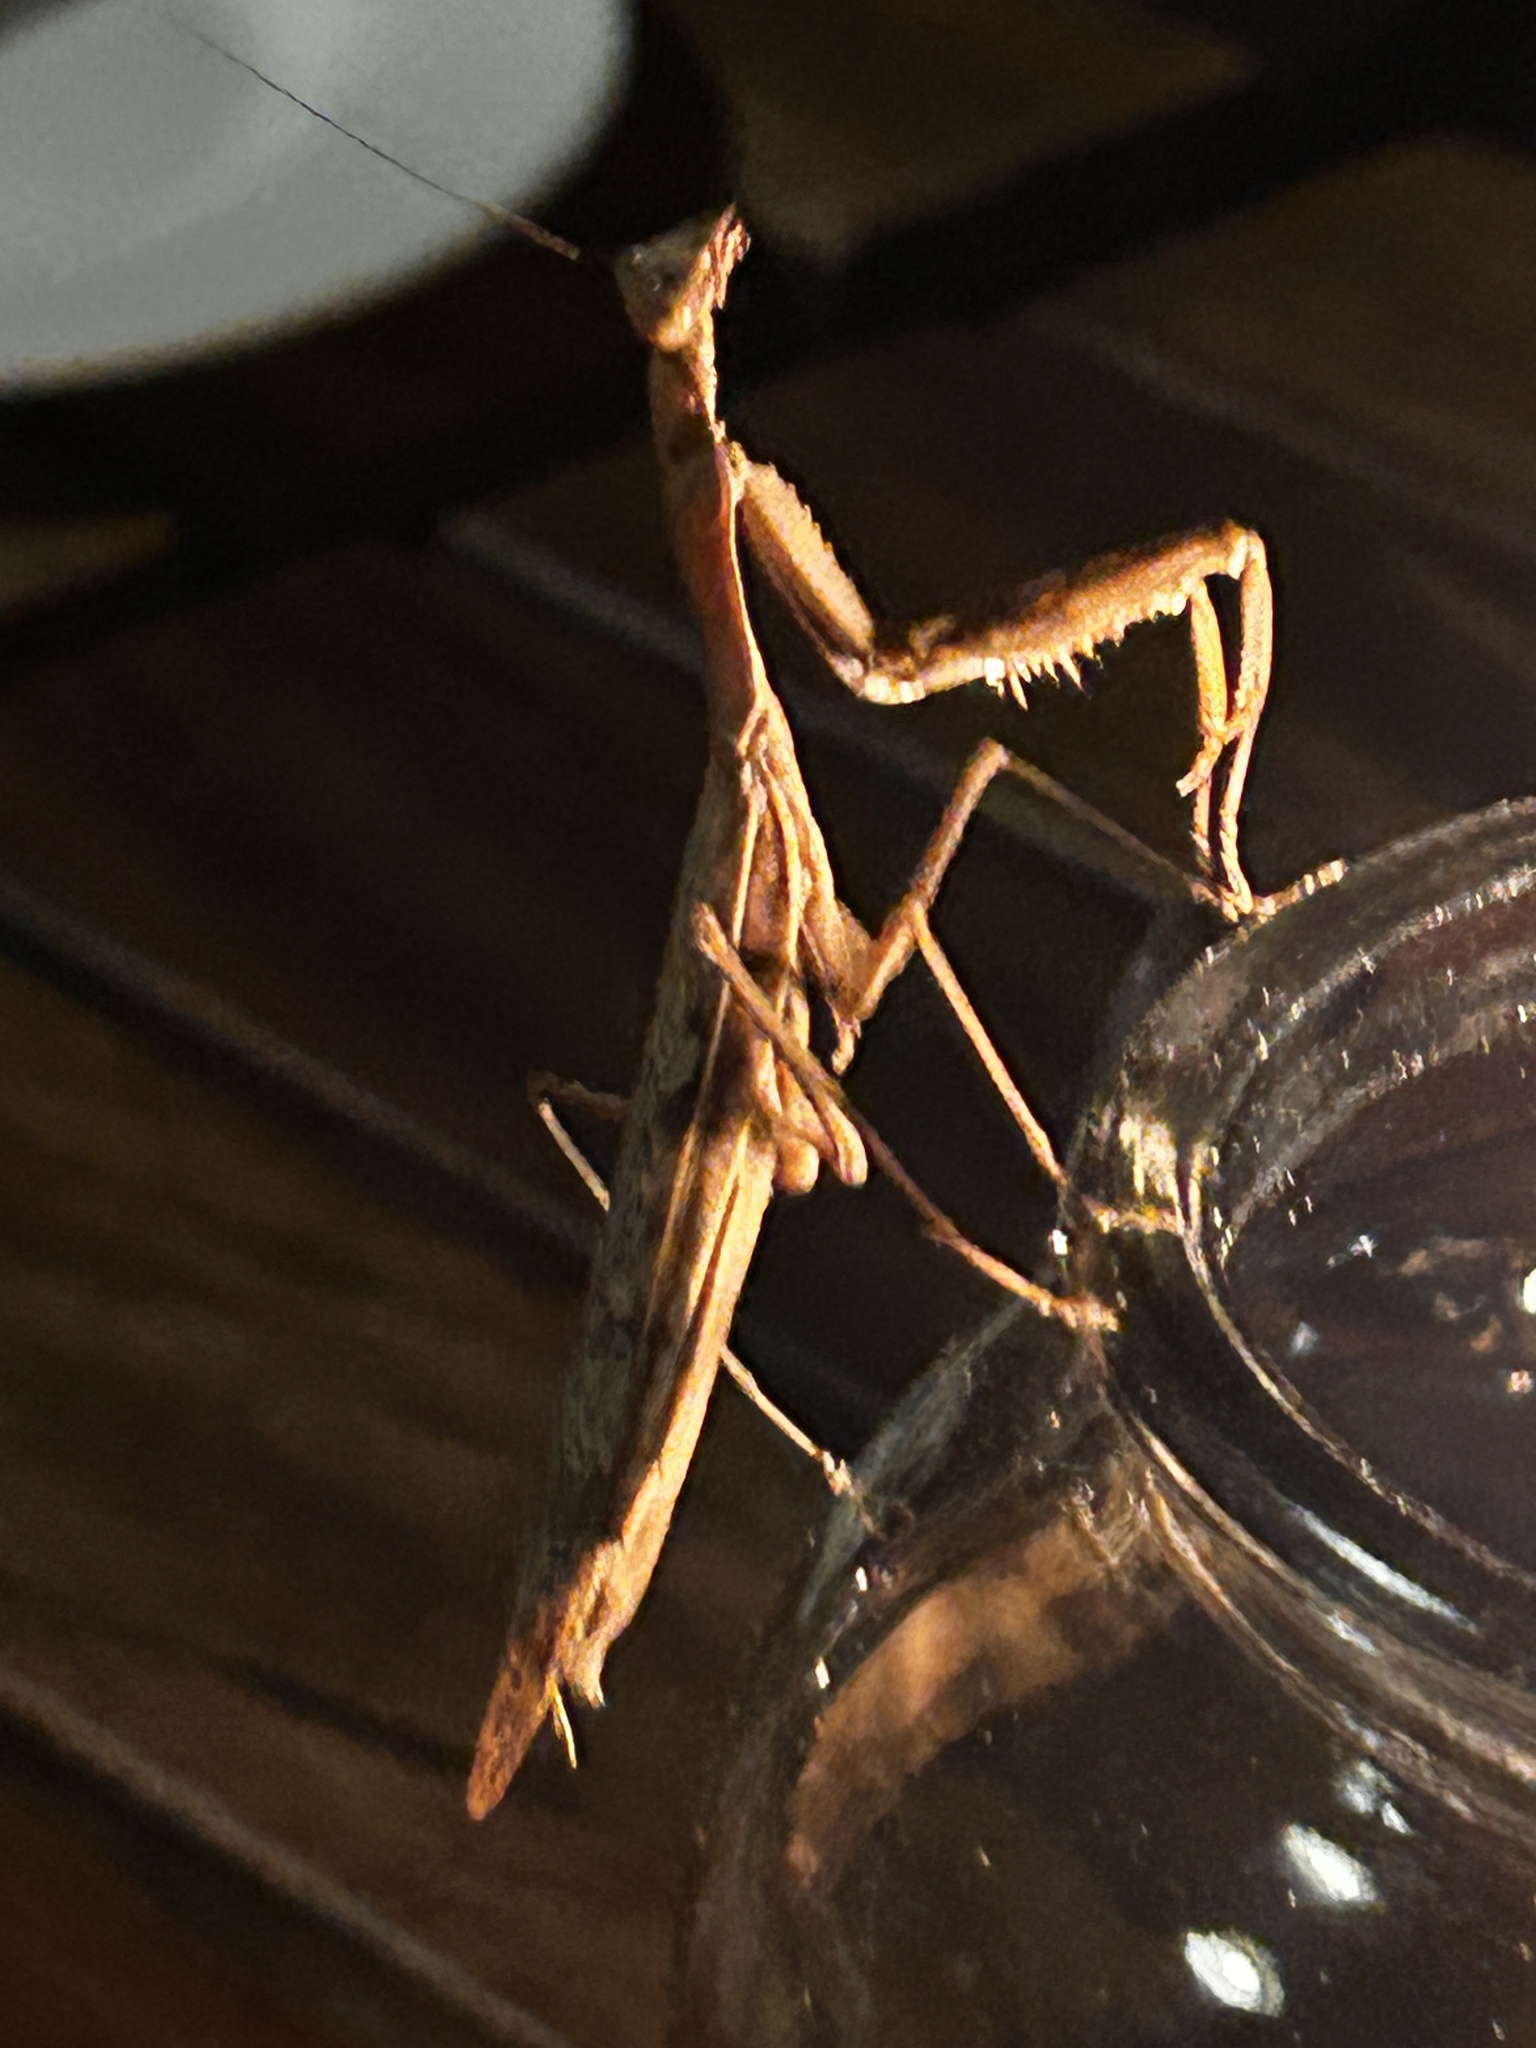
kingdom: Animalia
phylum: Arthropoda
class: Insecta
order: Mantodea
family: Mantidae
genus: Polyspilota
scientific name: Polyspilota aeruginosa
